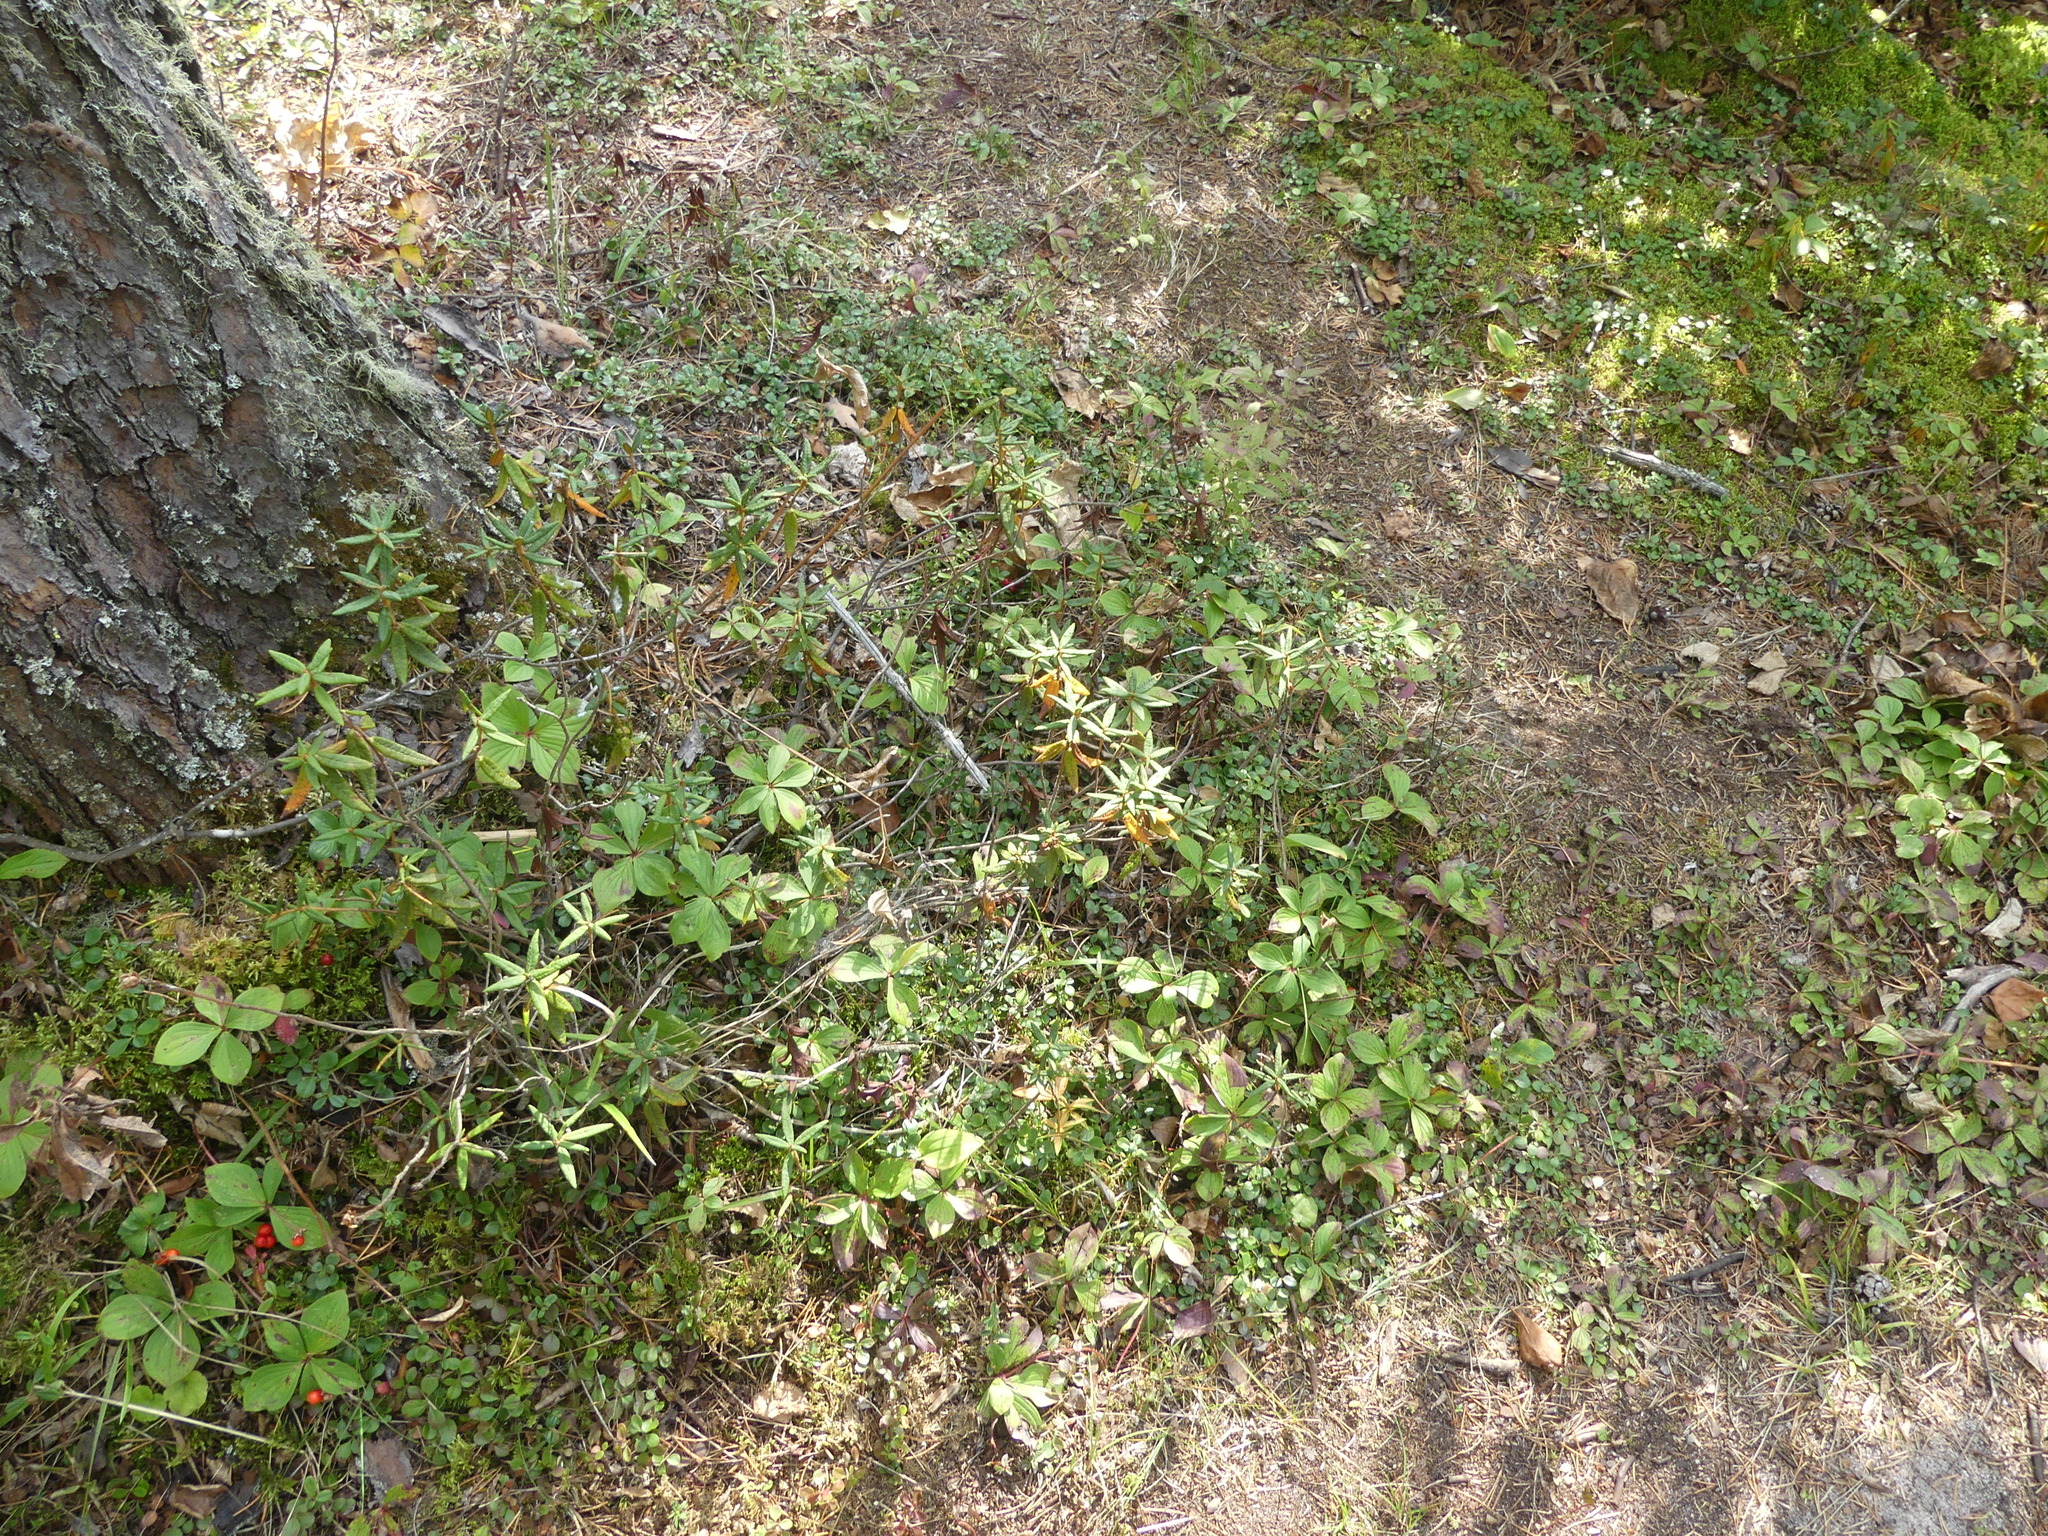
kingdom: Plantae
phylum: Tracheophyta
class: Magnoliopsida
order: Ericales
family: Ericaceae
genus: Rhododendron
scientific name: Rhododendron groenlandicum
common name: Bog labrador tea
